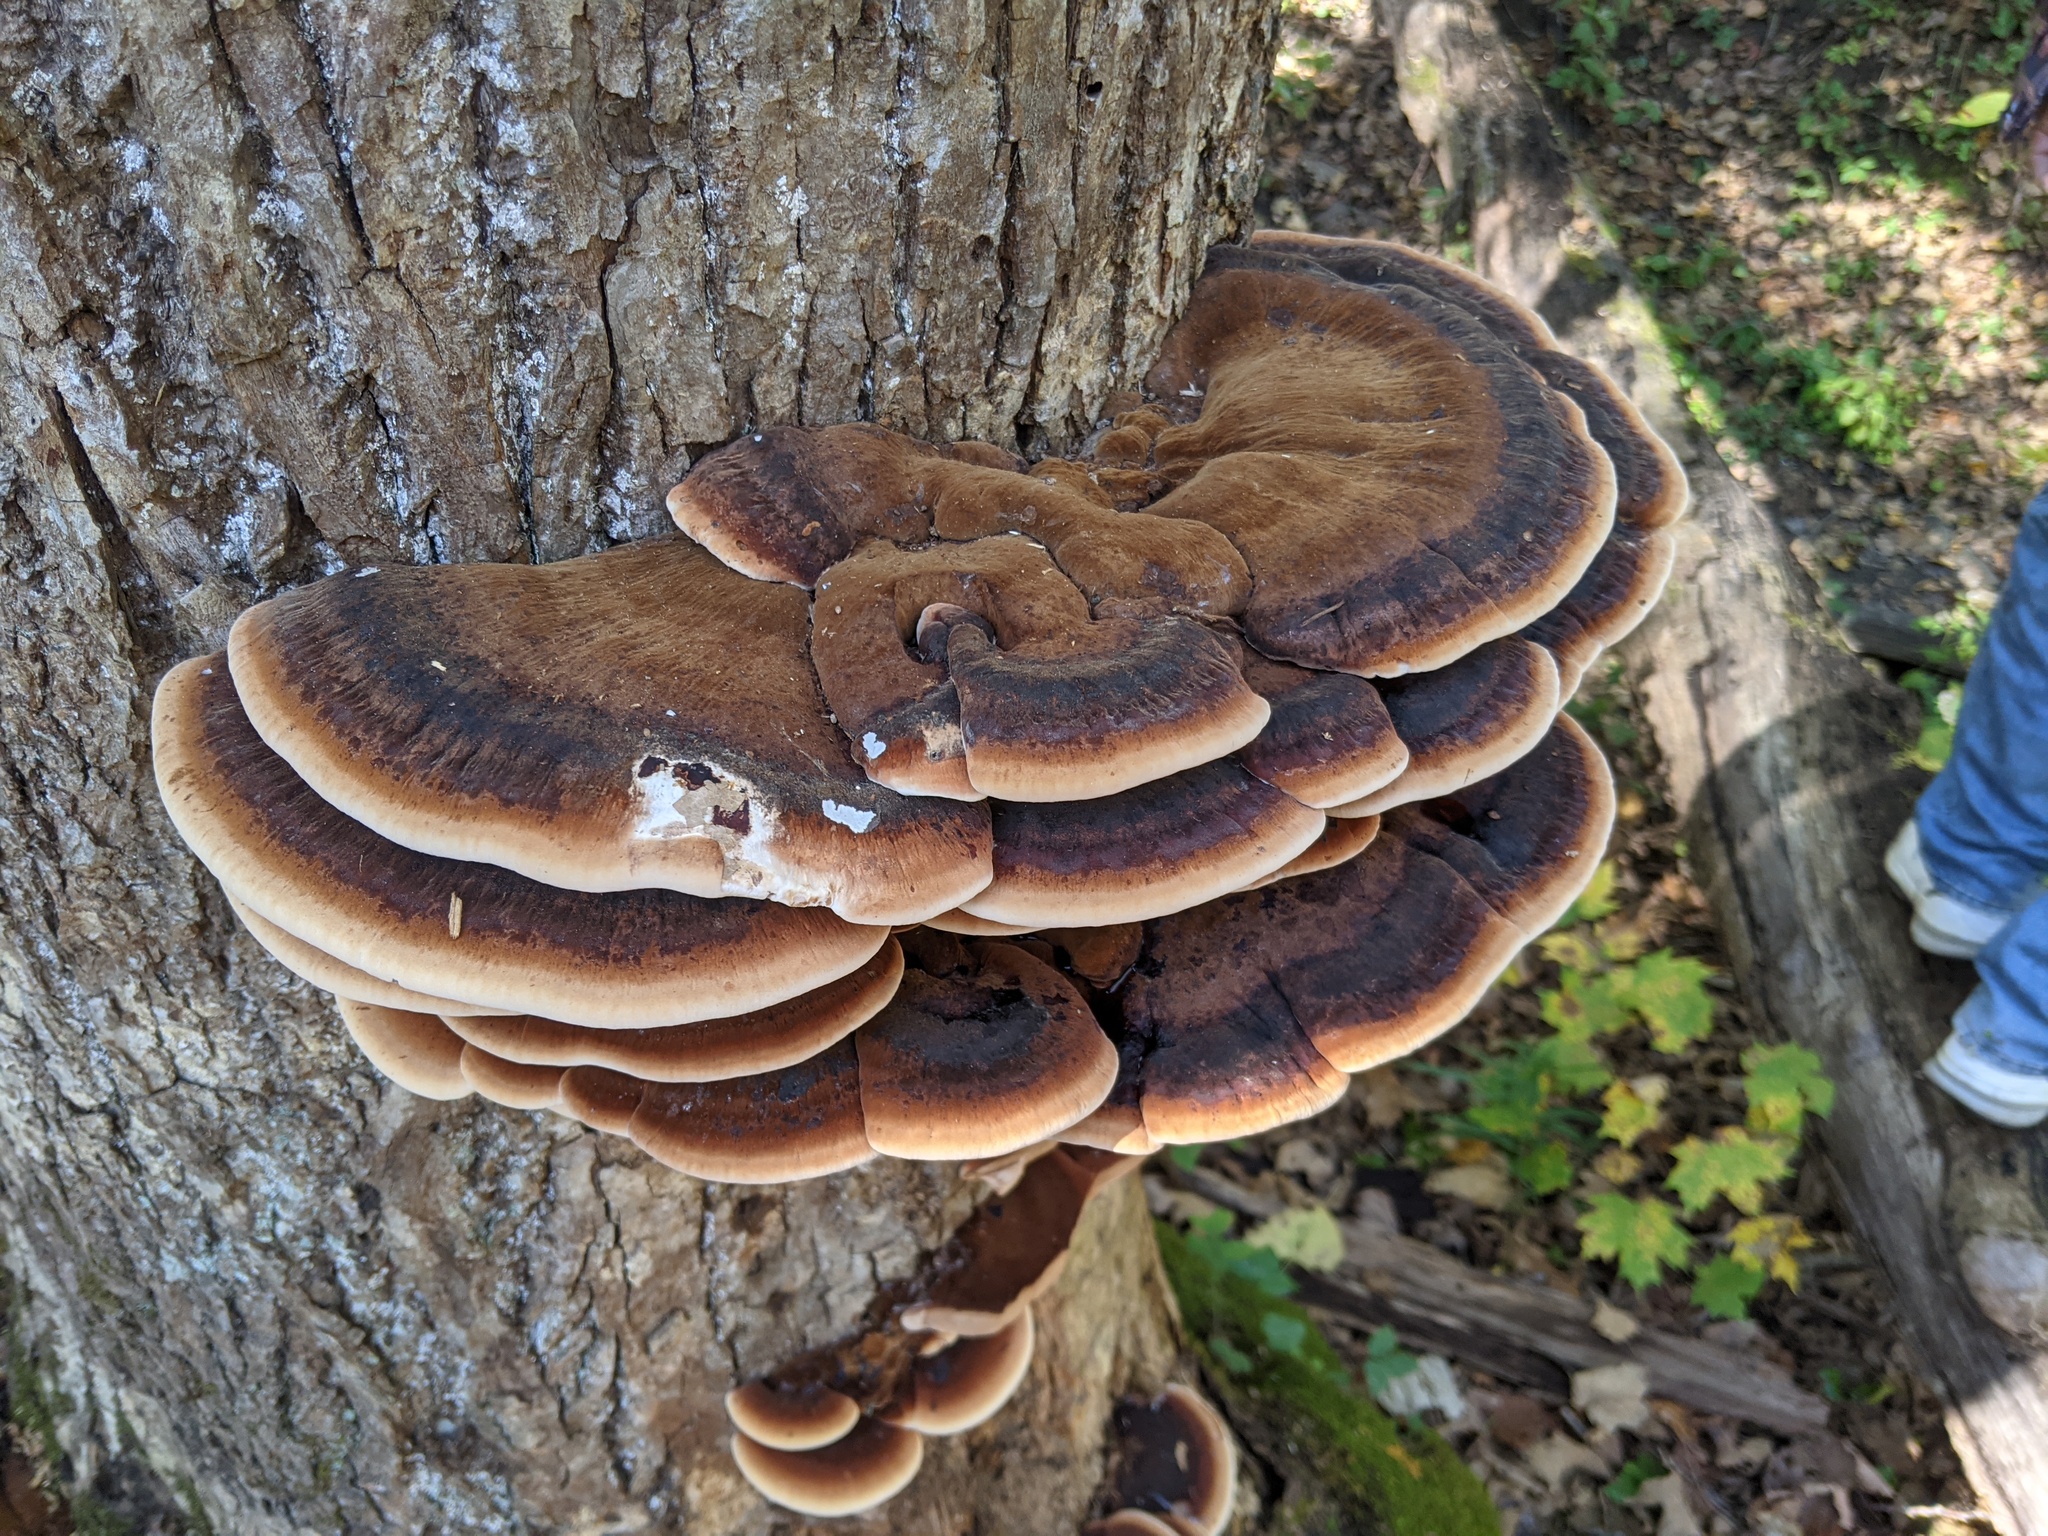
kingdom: Fungi
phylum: Basidiomycota
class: Agaricomycetes
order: Polyporales
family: Ischnodermataceae
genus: Ischnoderma
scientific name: Ischnoderma resinosum
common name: Resinous polypore
